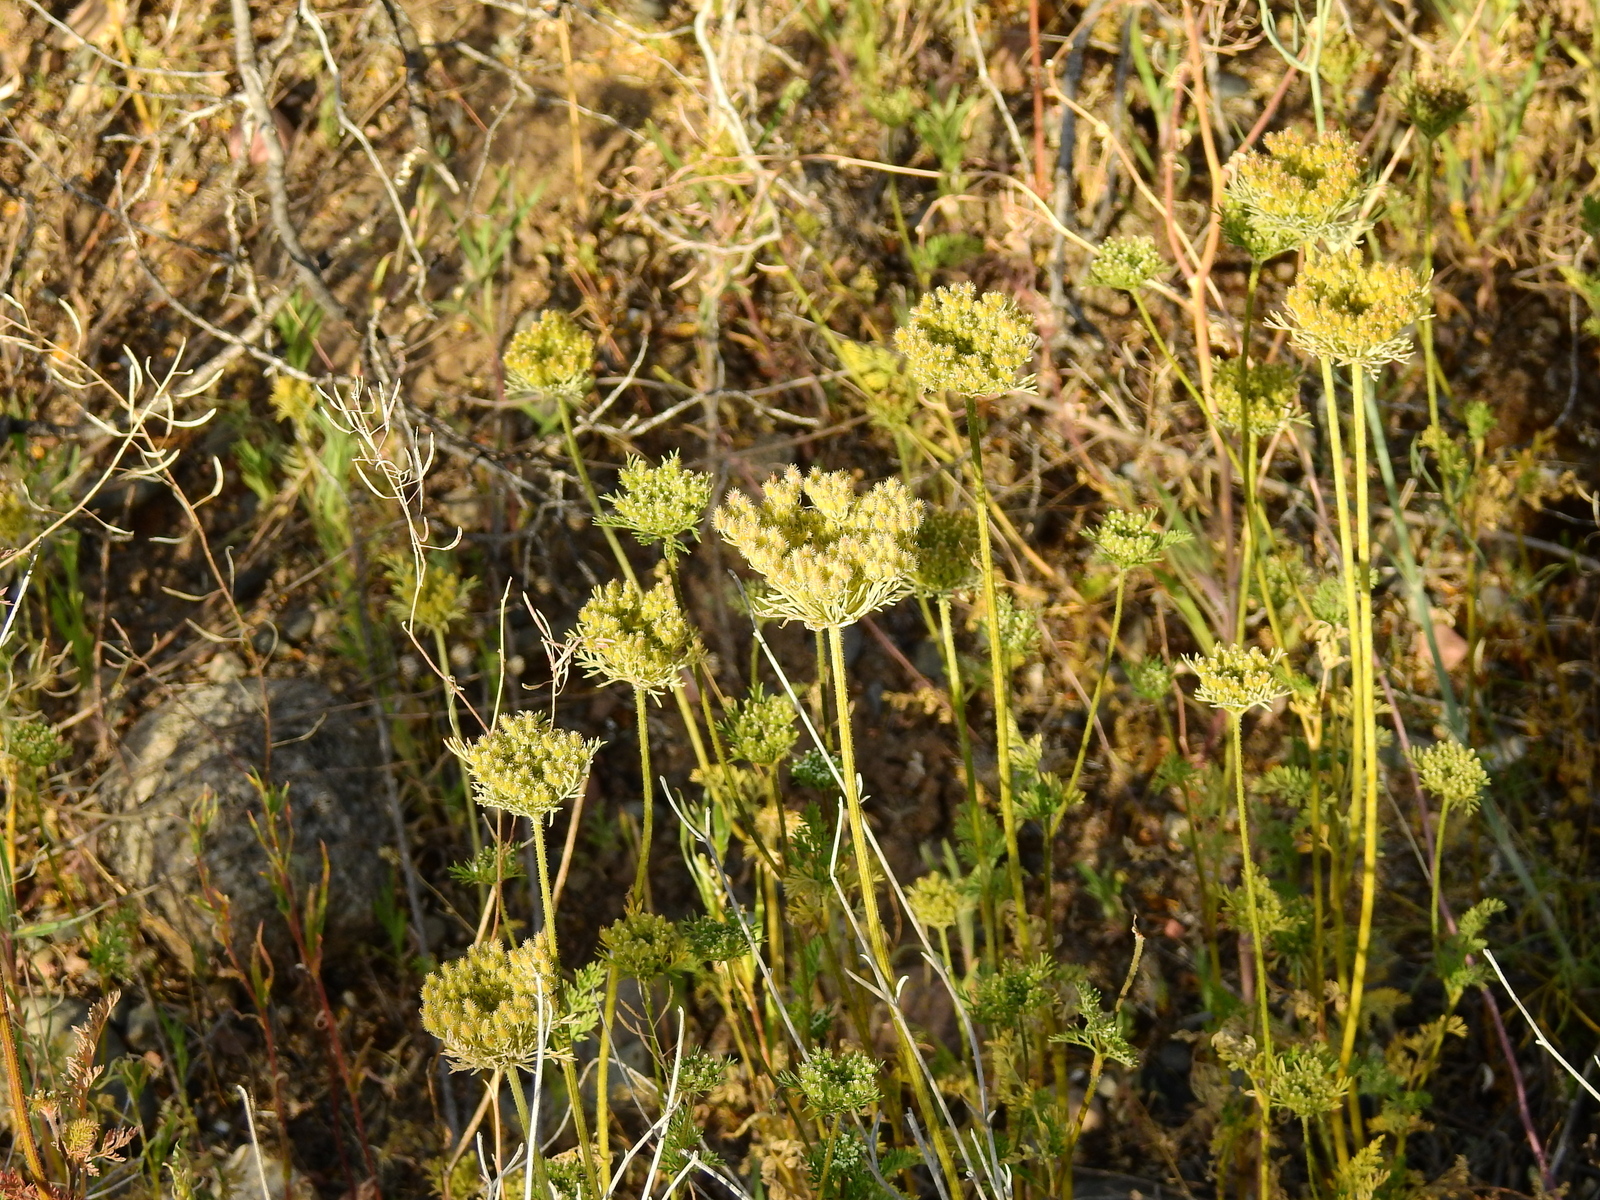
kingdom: Plantae
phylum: Tracheophyta
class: Magnoliopsida
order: Apiales
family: Apiaceae
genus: Daucus
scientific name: Daucus pusillus
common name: Southwest wild carrot
